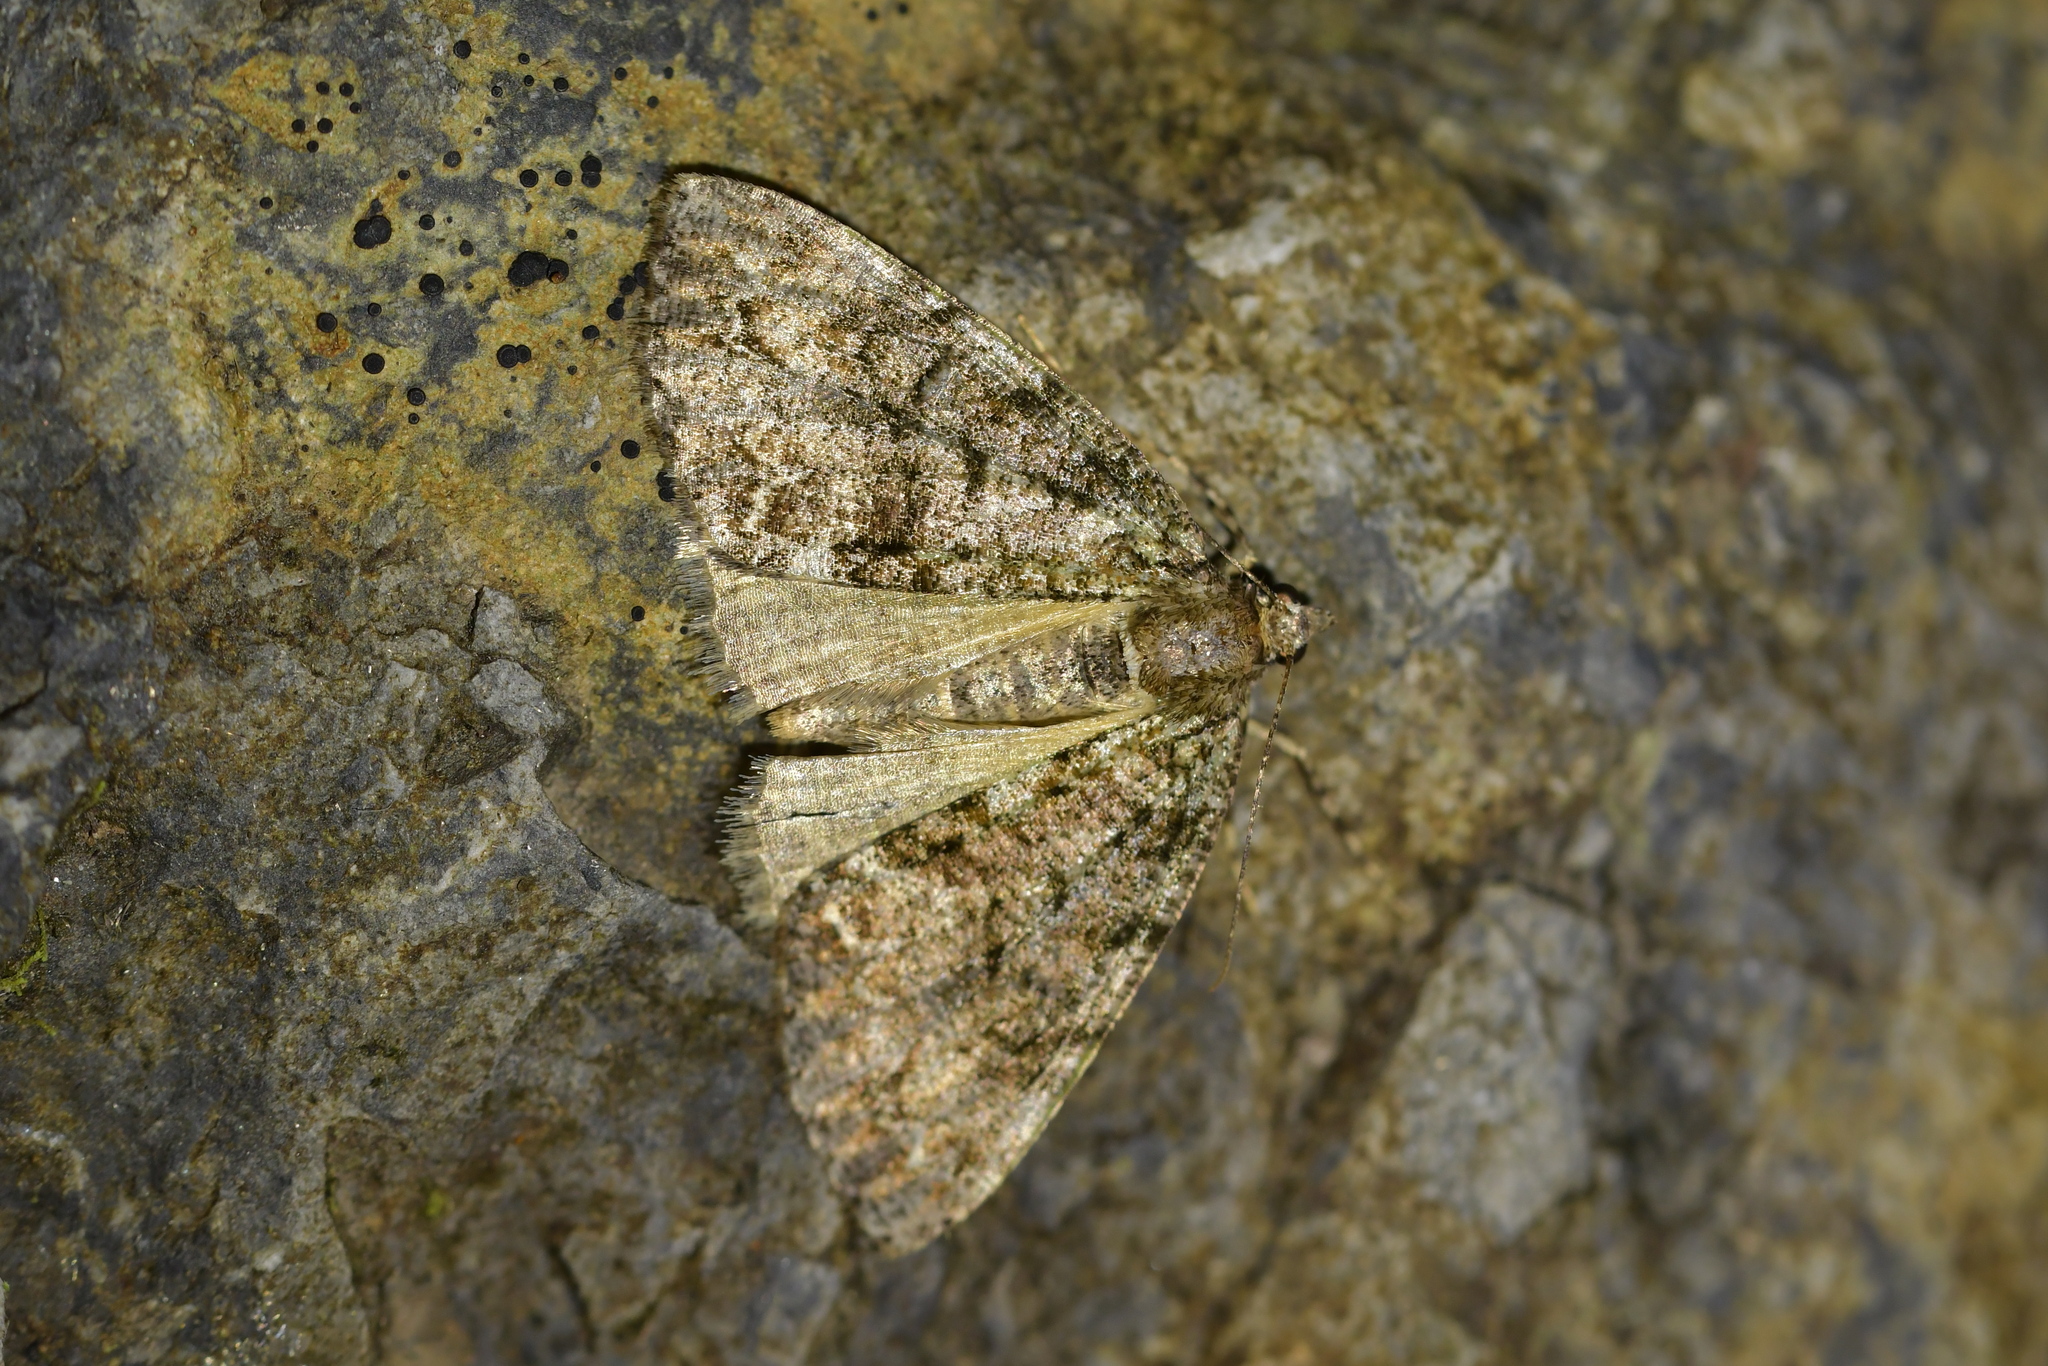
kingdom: Animalia
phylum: Arthropoda
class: Insecta
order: Lepidoptera
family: Geometridae
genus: Pseudocoremia
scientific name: Pseudocoremia suavis
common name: Common forest looper
